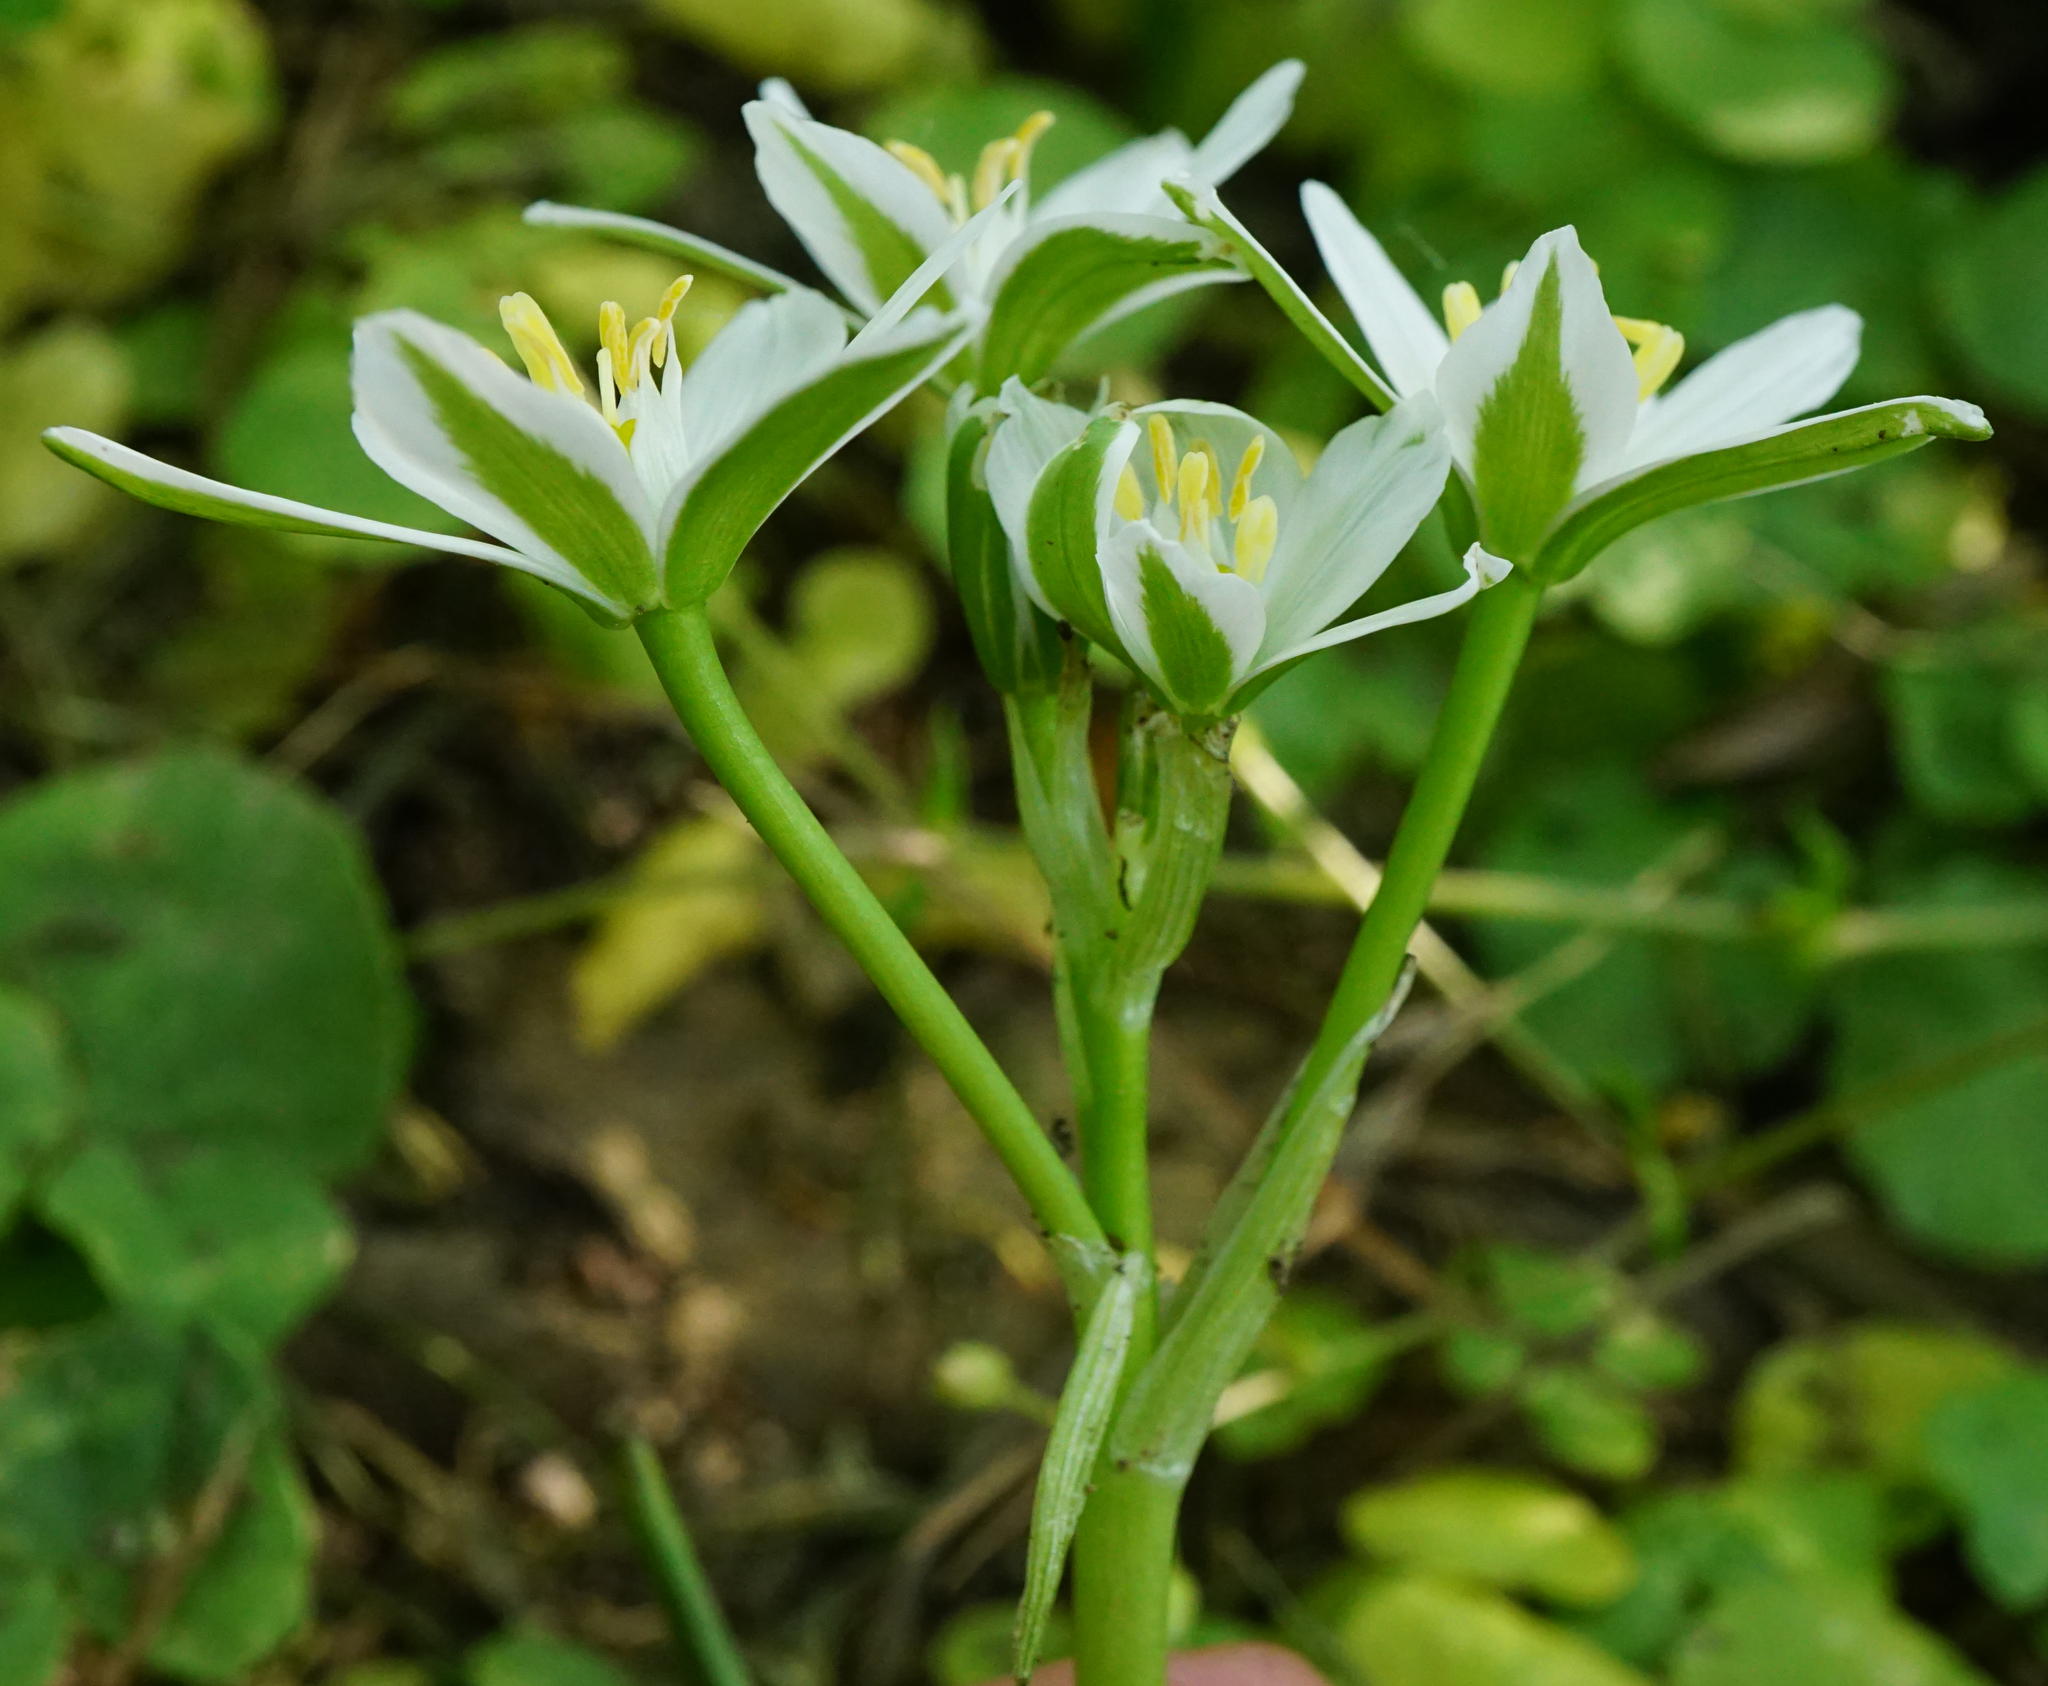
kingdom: Plantae
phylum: Tracheophyta
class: Liliopsida
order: Asparagales
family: Asparagaceae
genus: Ornithogalum
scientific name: Ornithogalum orthophyllum
